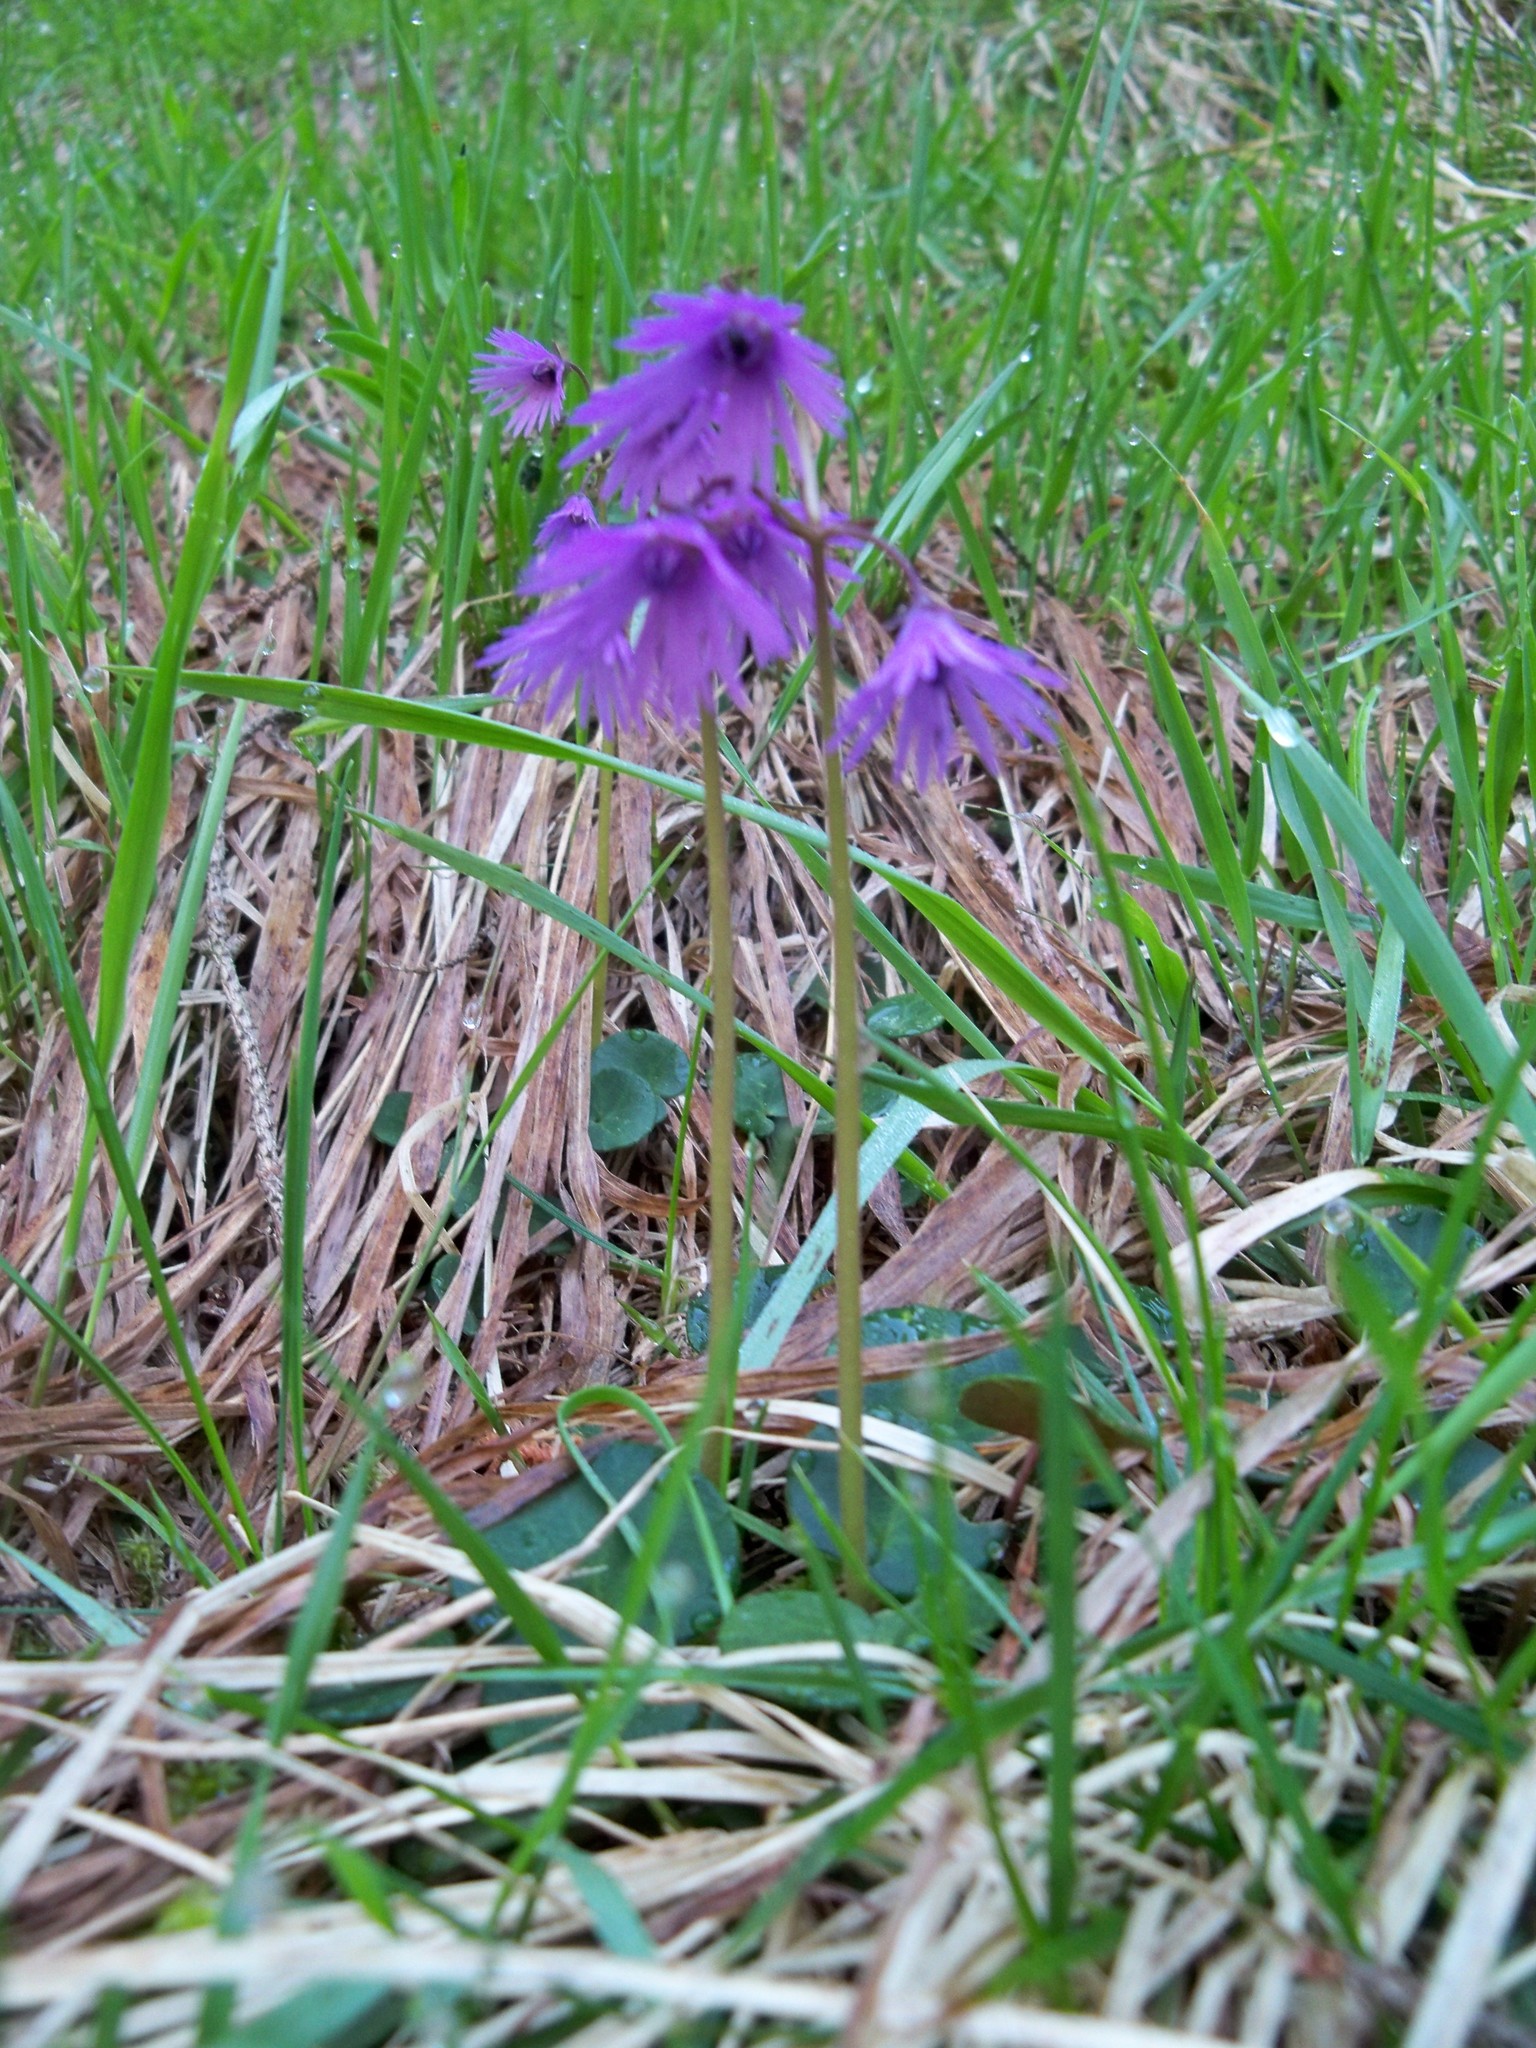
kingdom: Plantae
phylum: Tracheophyta
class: Magnoliopsida
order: Ericales
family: Primulaceae
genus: Soldanella
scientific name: Soldanella carpatica
